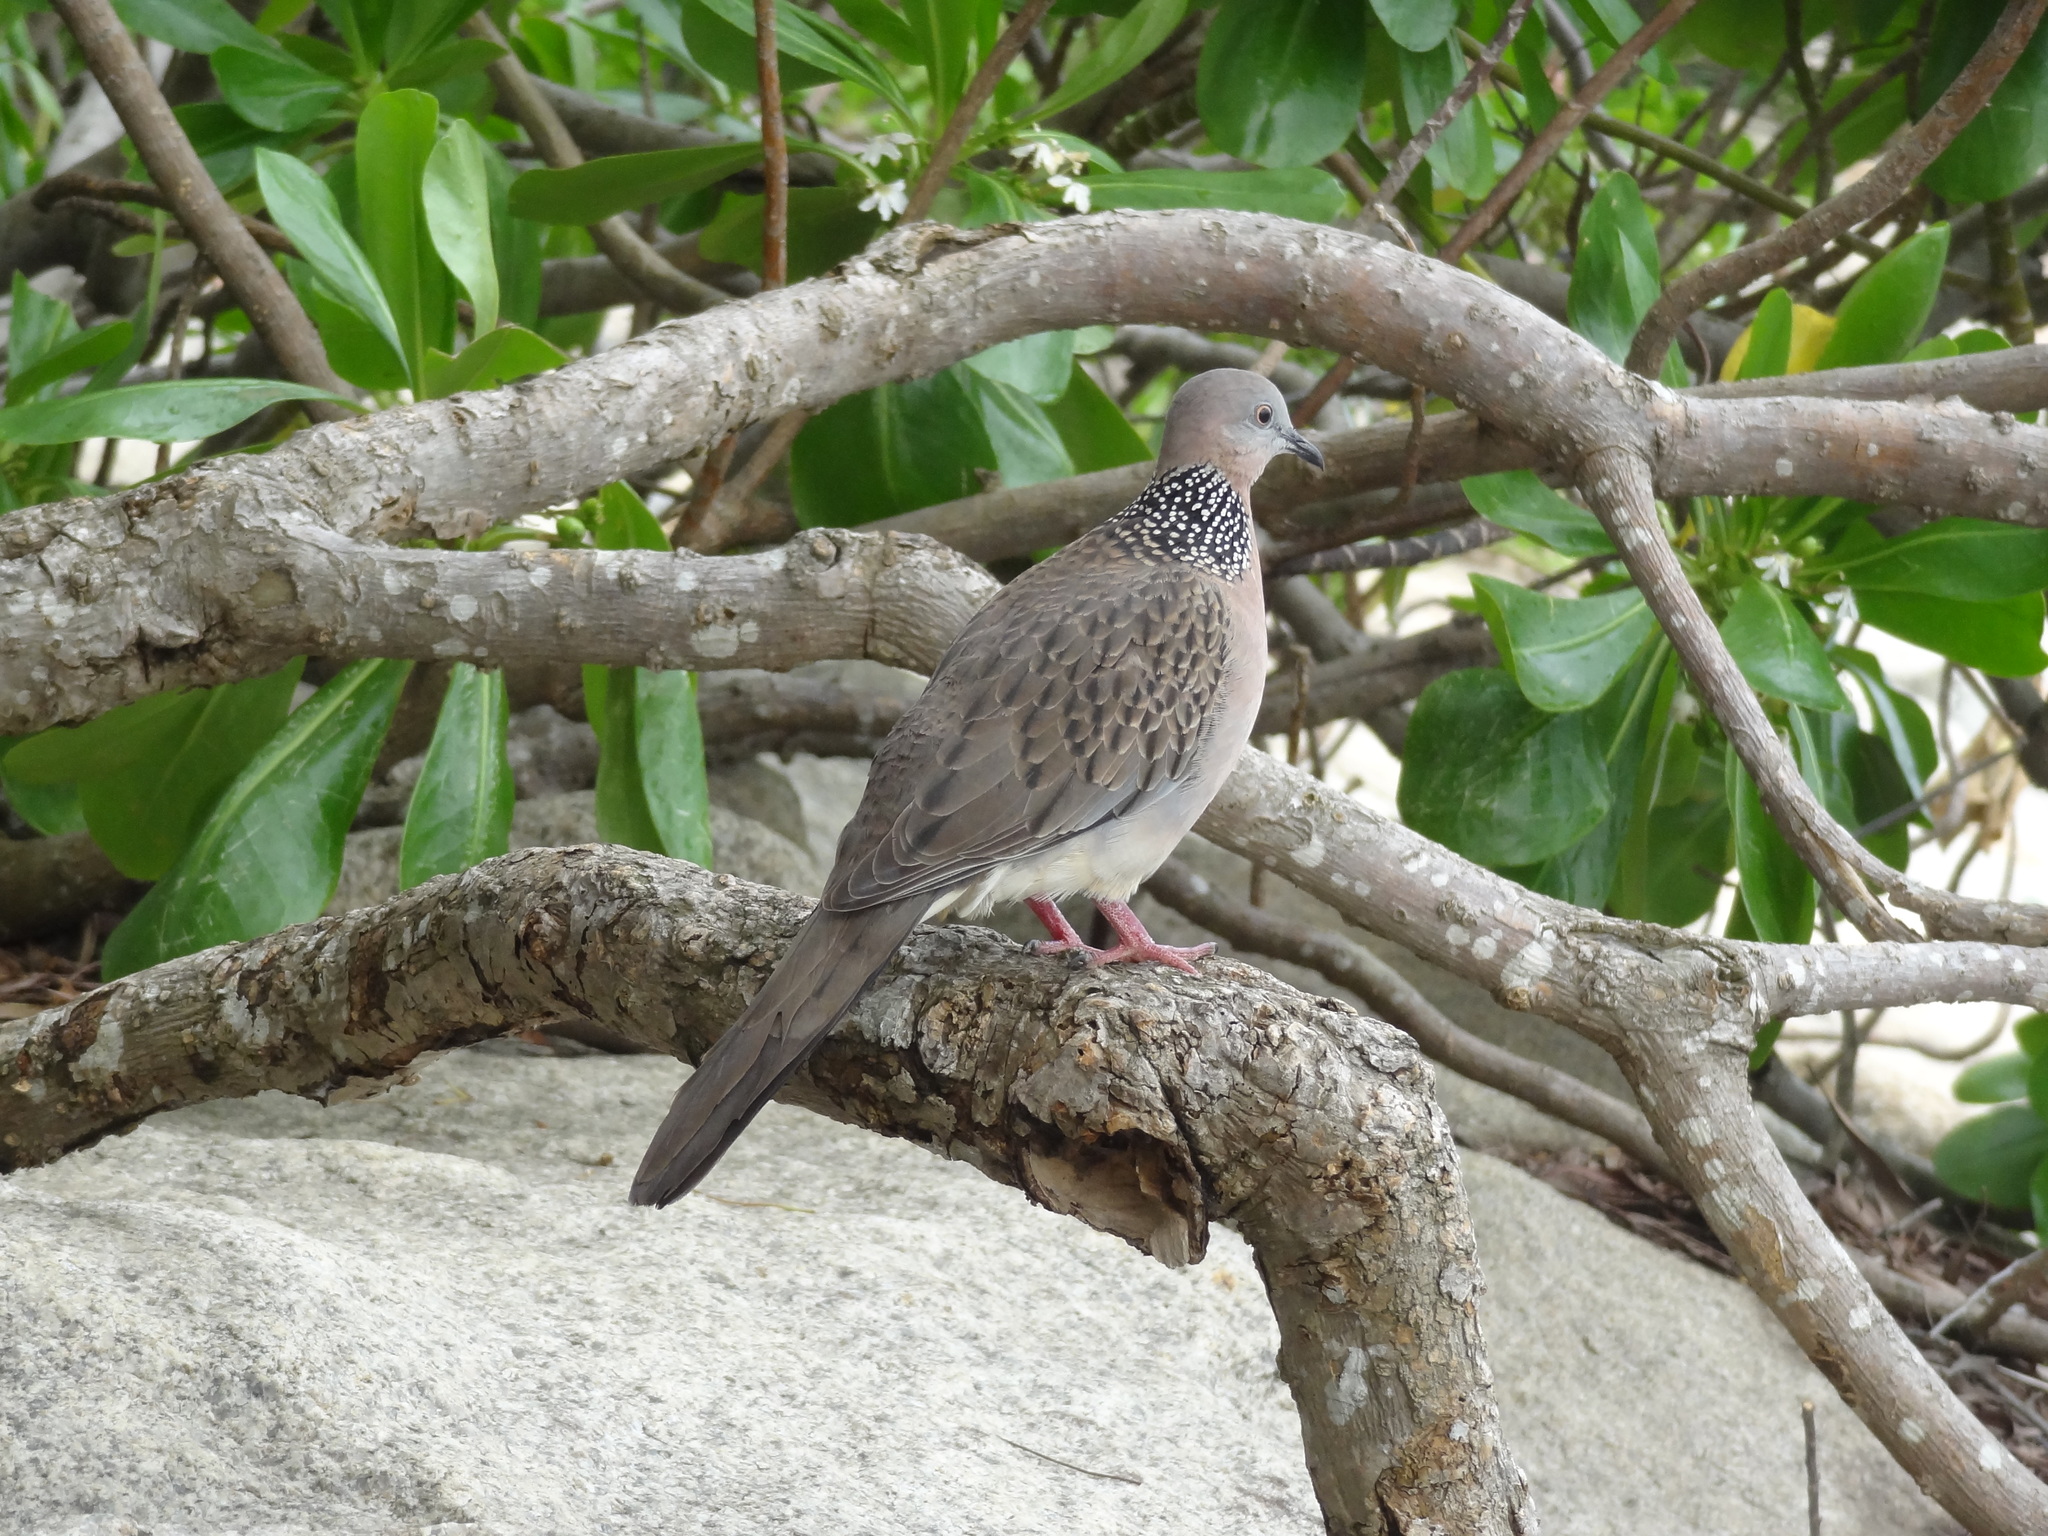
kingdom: Animalia
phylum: Chordata
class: Aves
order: Columbiformes
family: Columbidae
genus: Spilopelia
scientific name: Spilopelia chinensis
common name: Spotted dove
